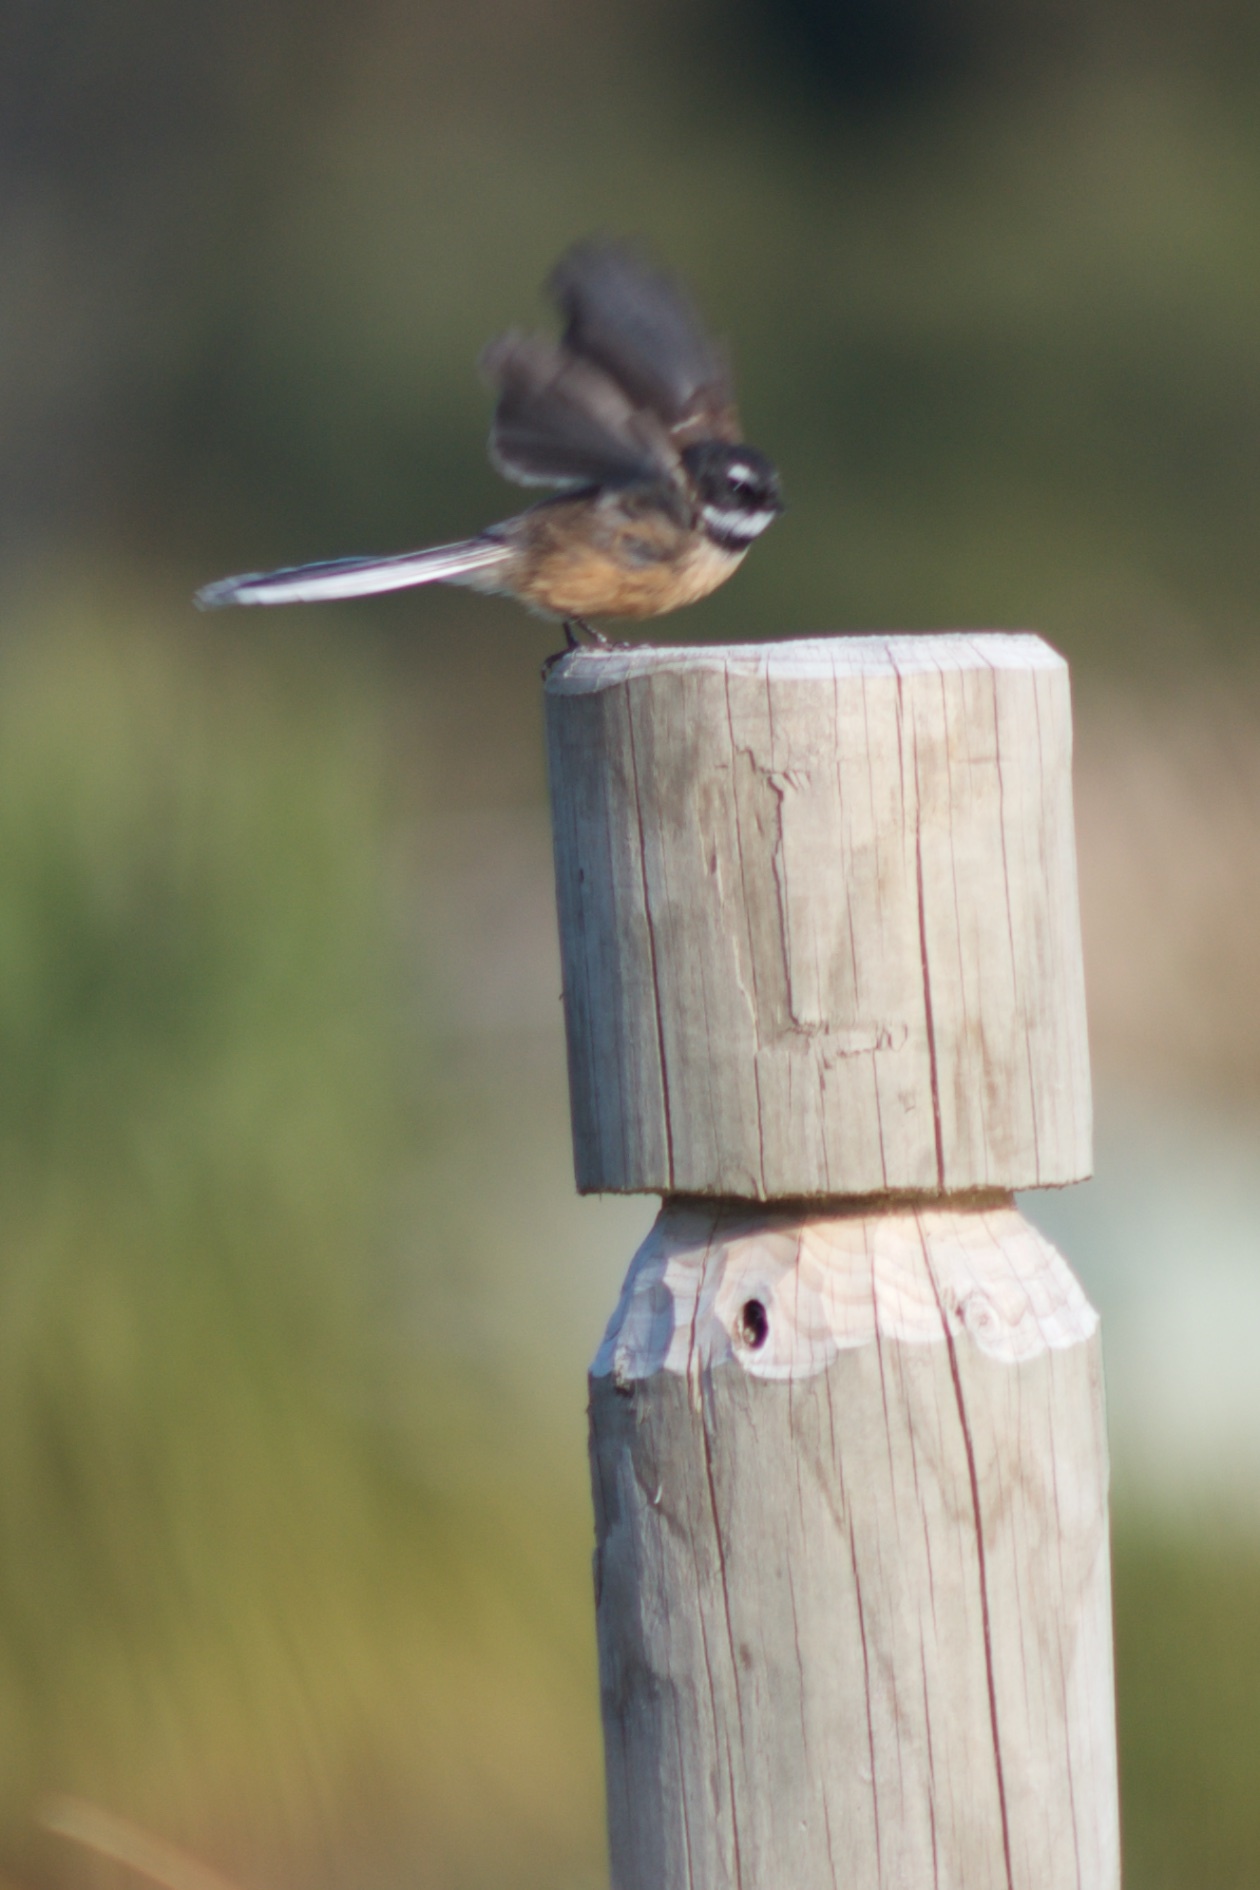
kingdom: Animalia
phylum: Chordata
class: Aves
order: Passeriformes
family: Rhipiduridae
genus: Rhipidura
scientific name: Rhipidura fuliginosa
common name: New zealand fantail
